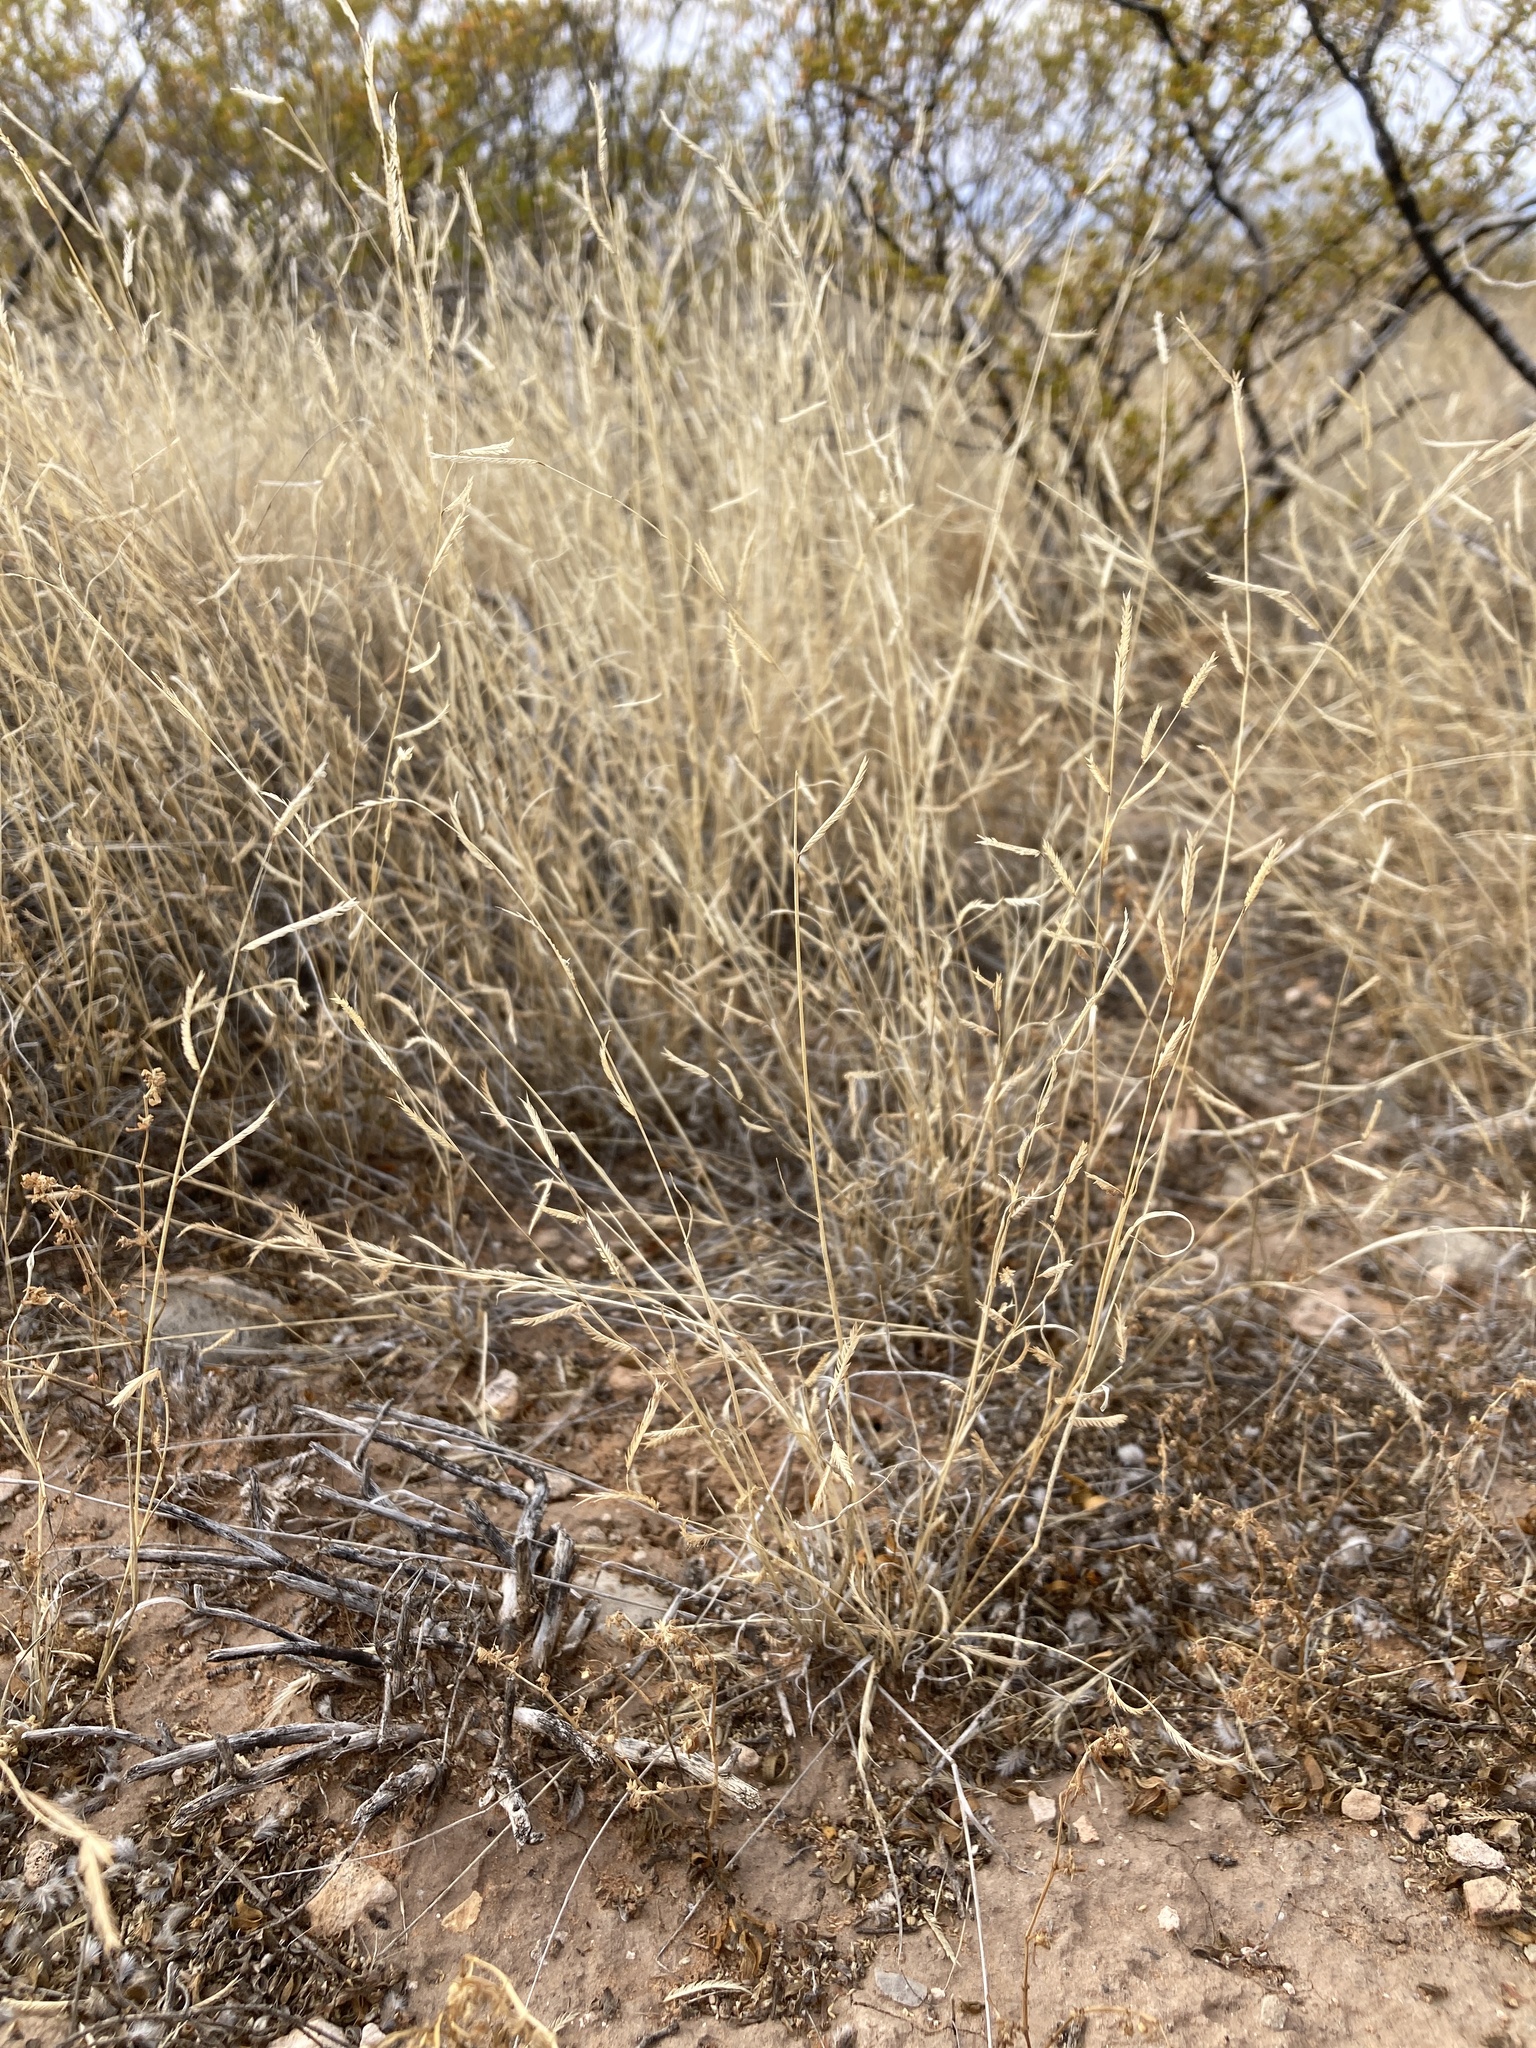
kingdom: Plantae
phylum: Tracheophyta
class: Liliopsida
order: Poales
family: Poaceae
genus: Bouteloua
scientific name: Bouteloua barbata
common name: Six-weeks grama
